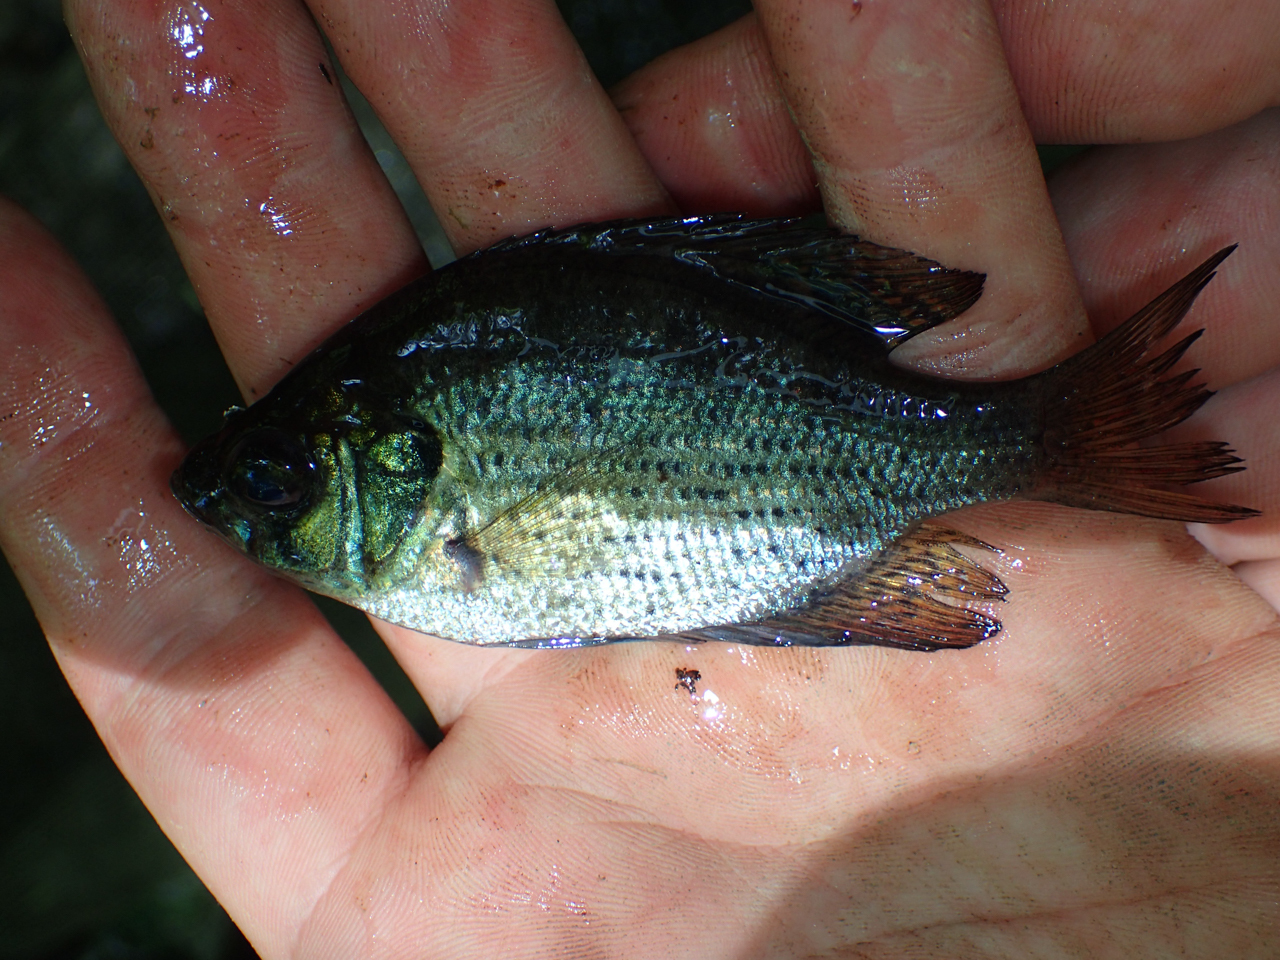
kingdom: Animalia
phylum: Chordata
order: Perciformes
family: Centrarchidae
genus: Centrarchus
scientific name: Centrarchus macropterus
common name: Flier
